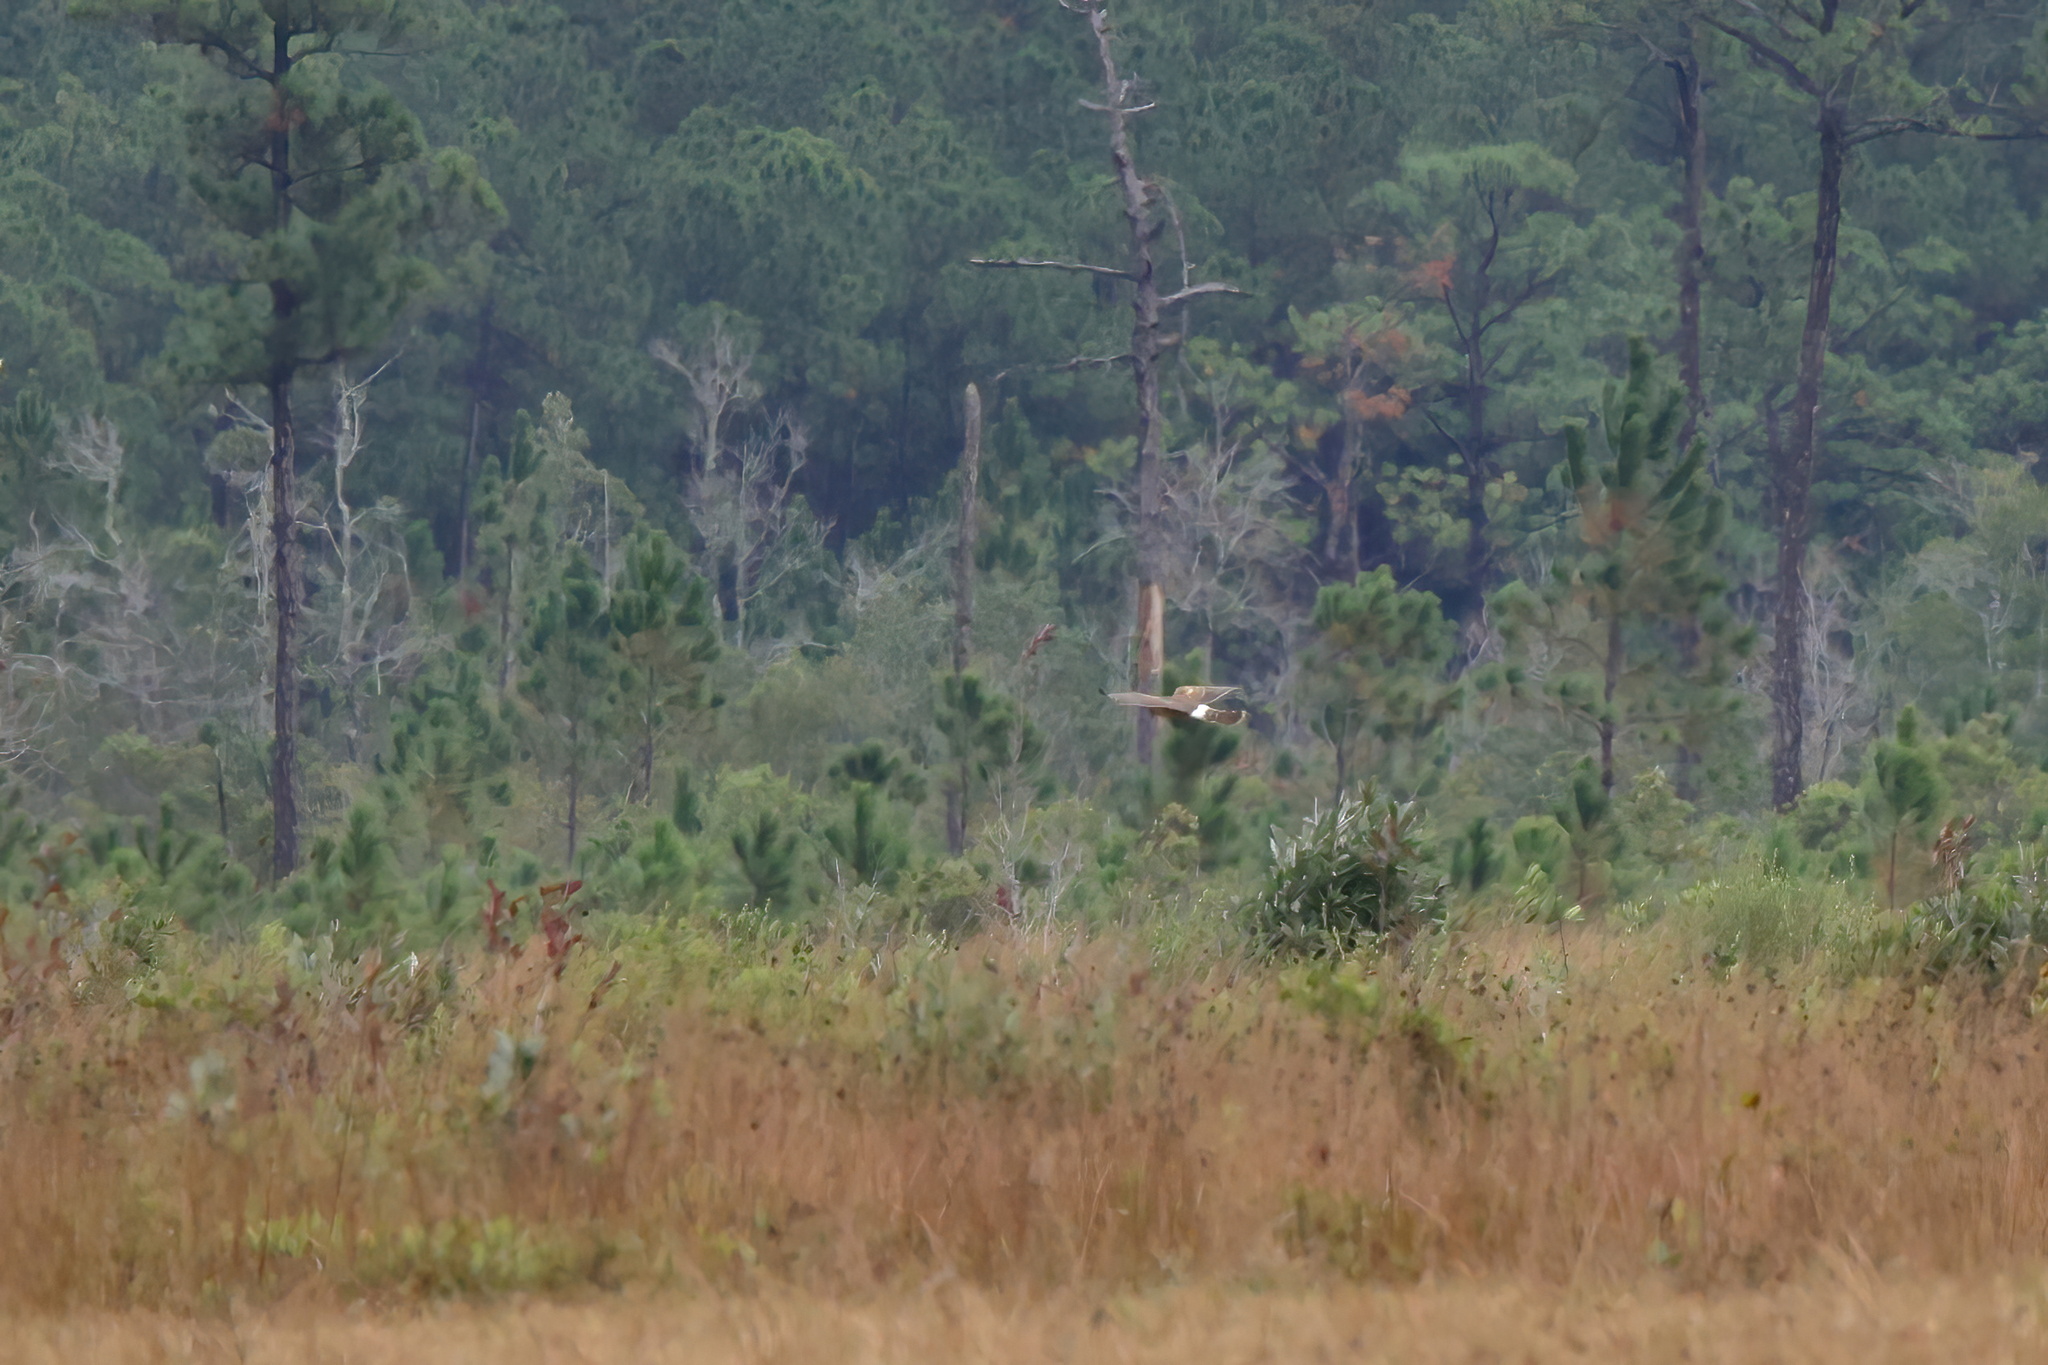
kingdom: Animalia
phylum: Chordata
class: Aves
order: Accipitriformes
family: Accipitridae
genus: Circus
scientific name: Circus cyaneus
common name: Hen harrier
